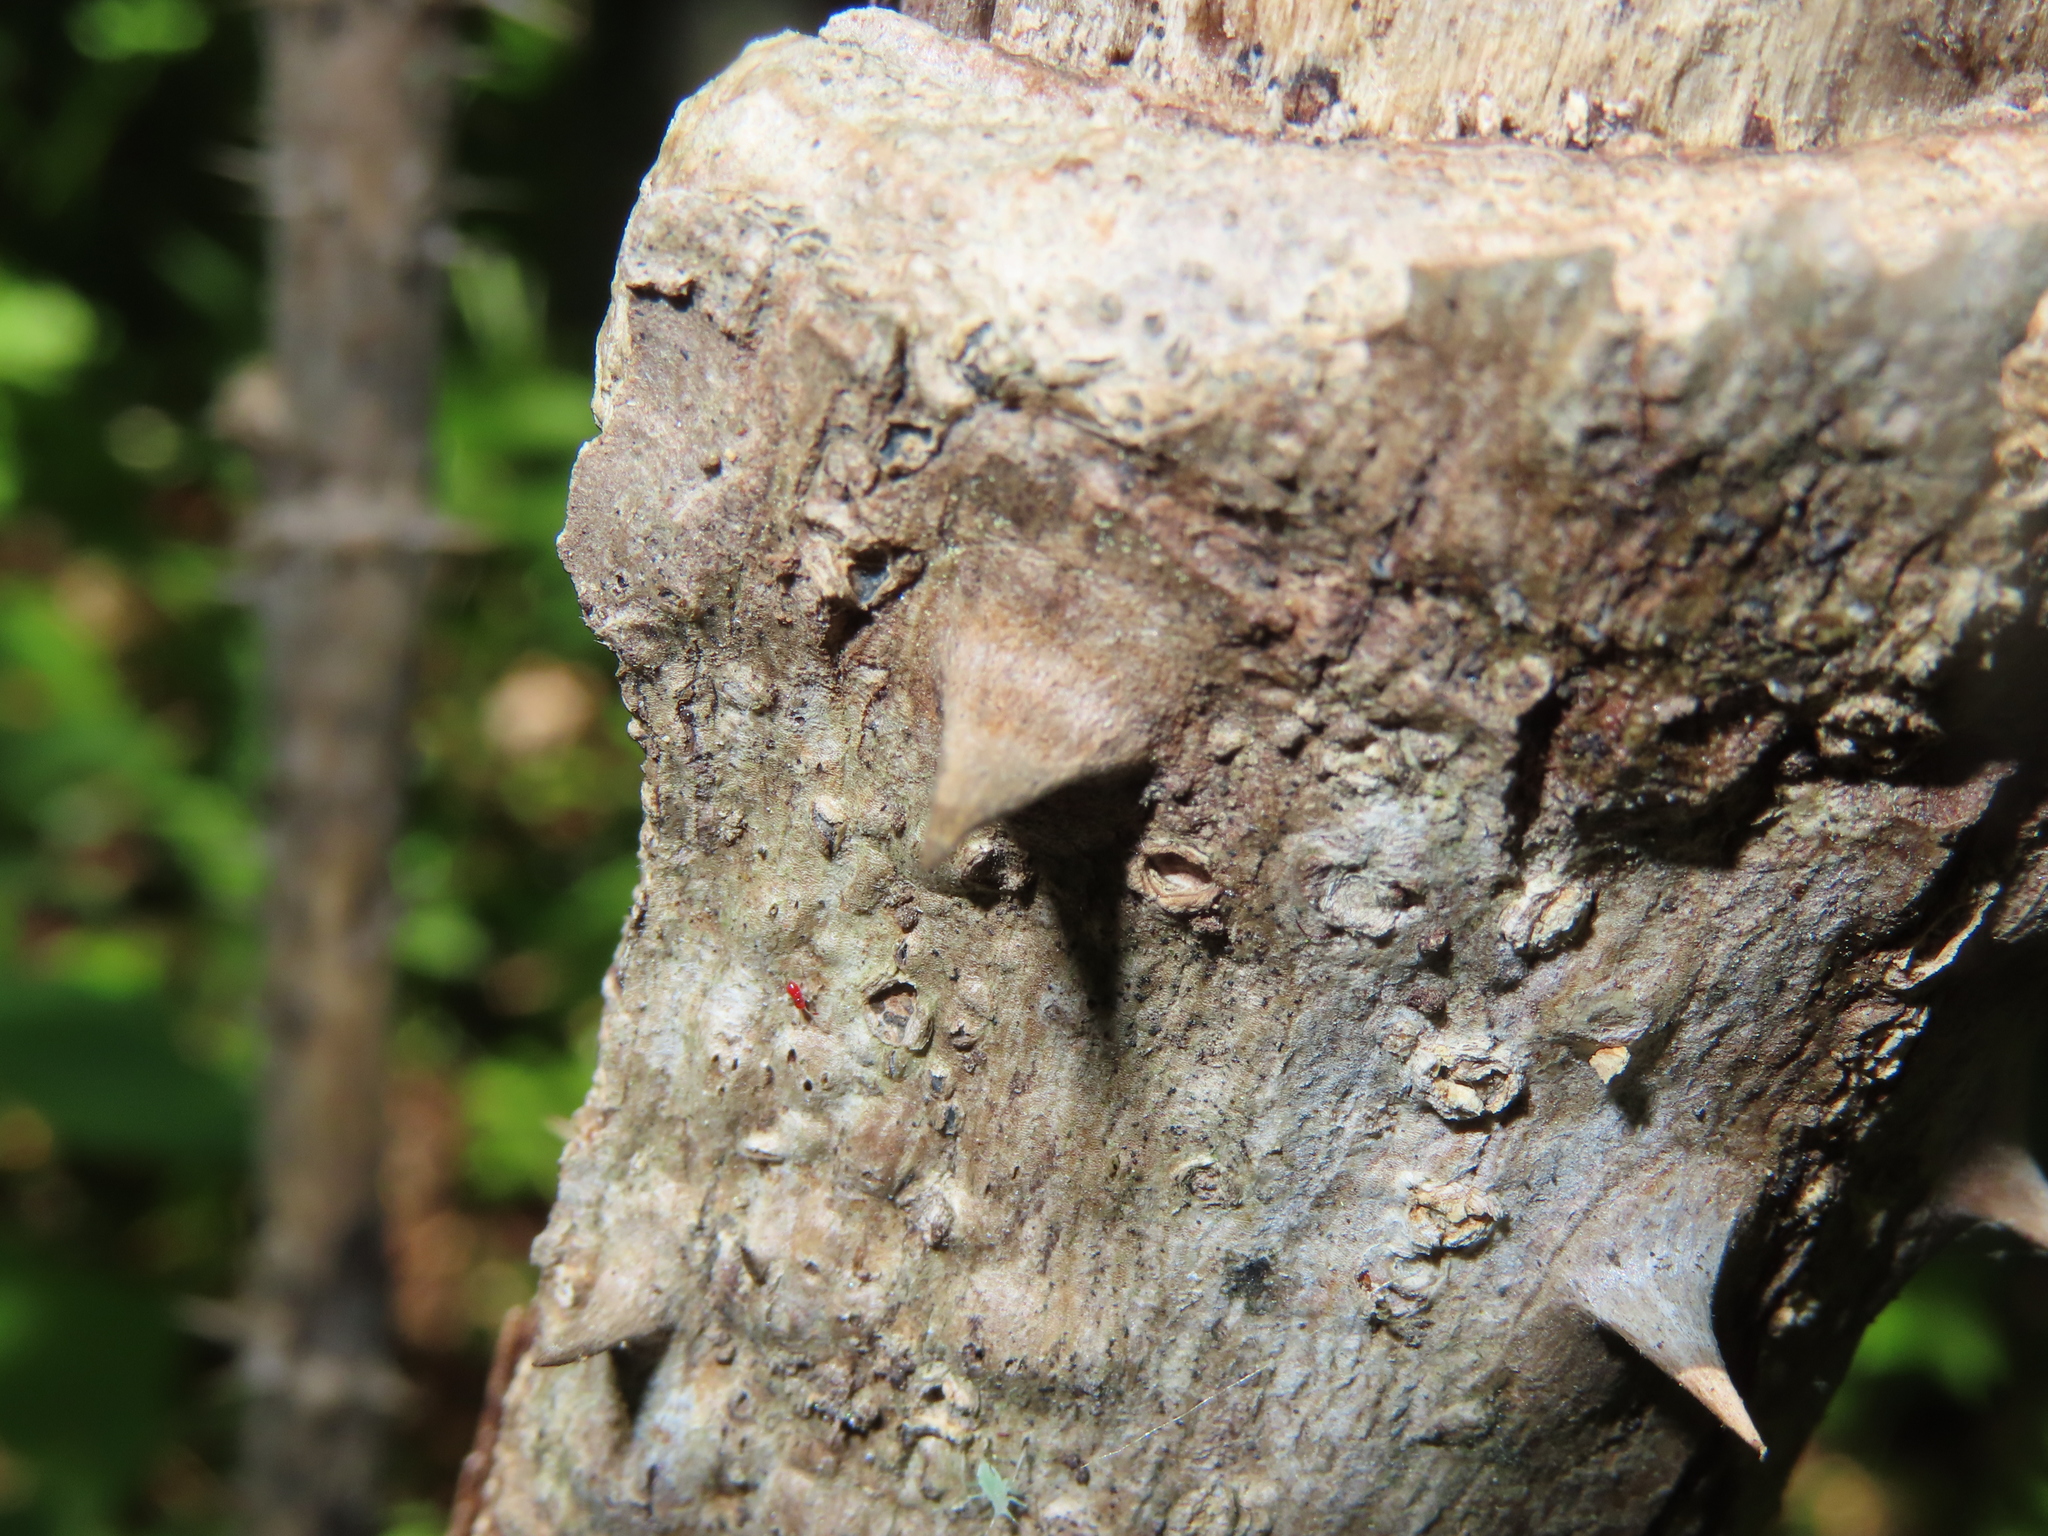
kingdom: Plantae
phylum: Tracheophyta
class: Magnoliopsida
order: Apiales
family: Araliaceae
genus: Aralia
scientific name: Aralia elata
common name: Japanese angelica-tree
